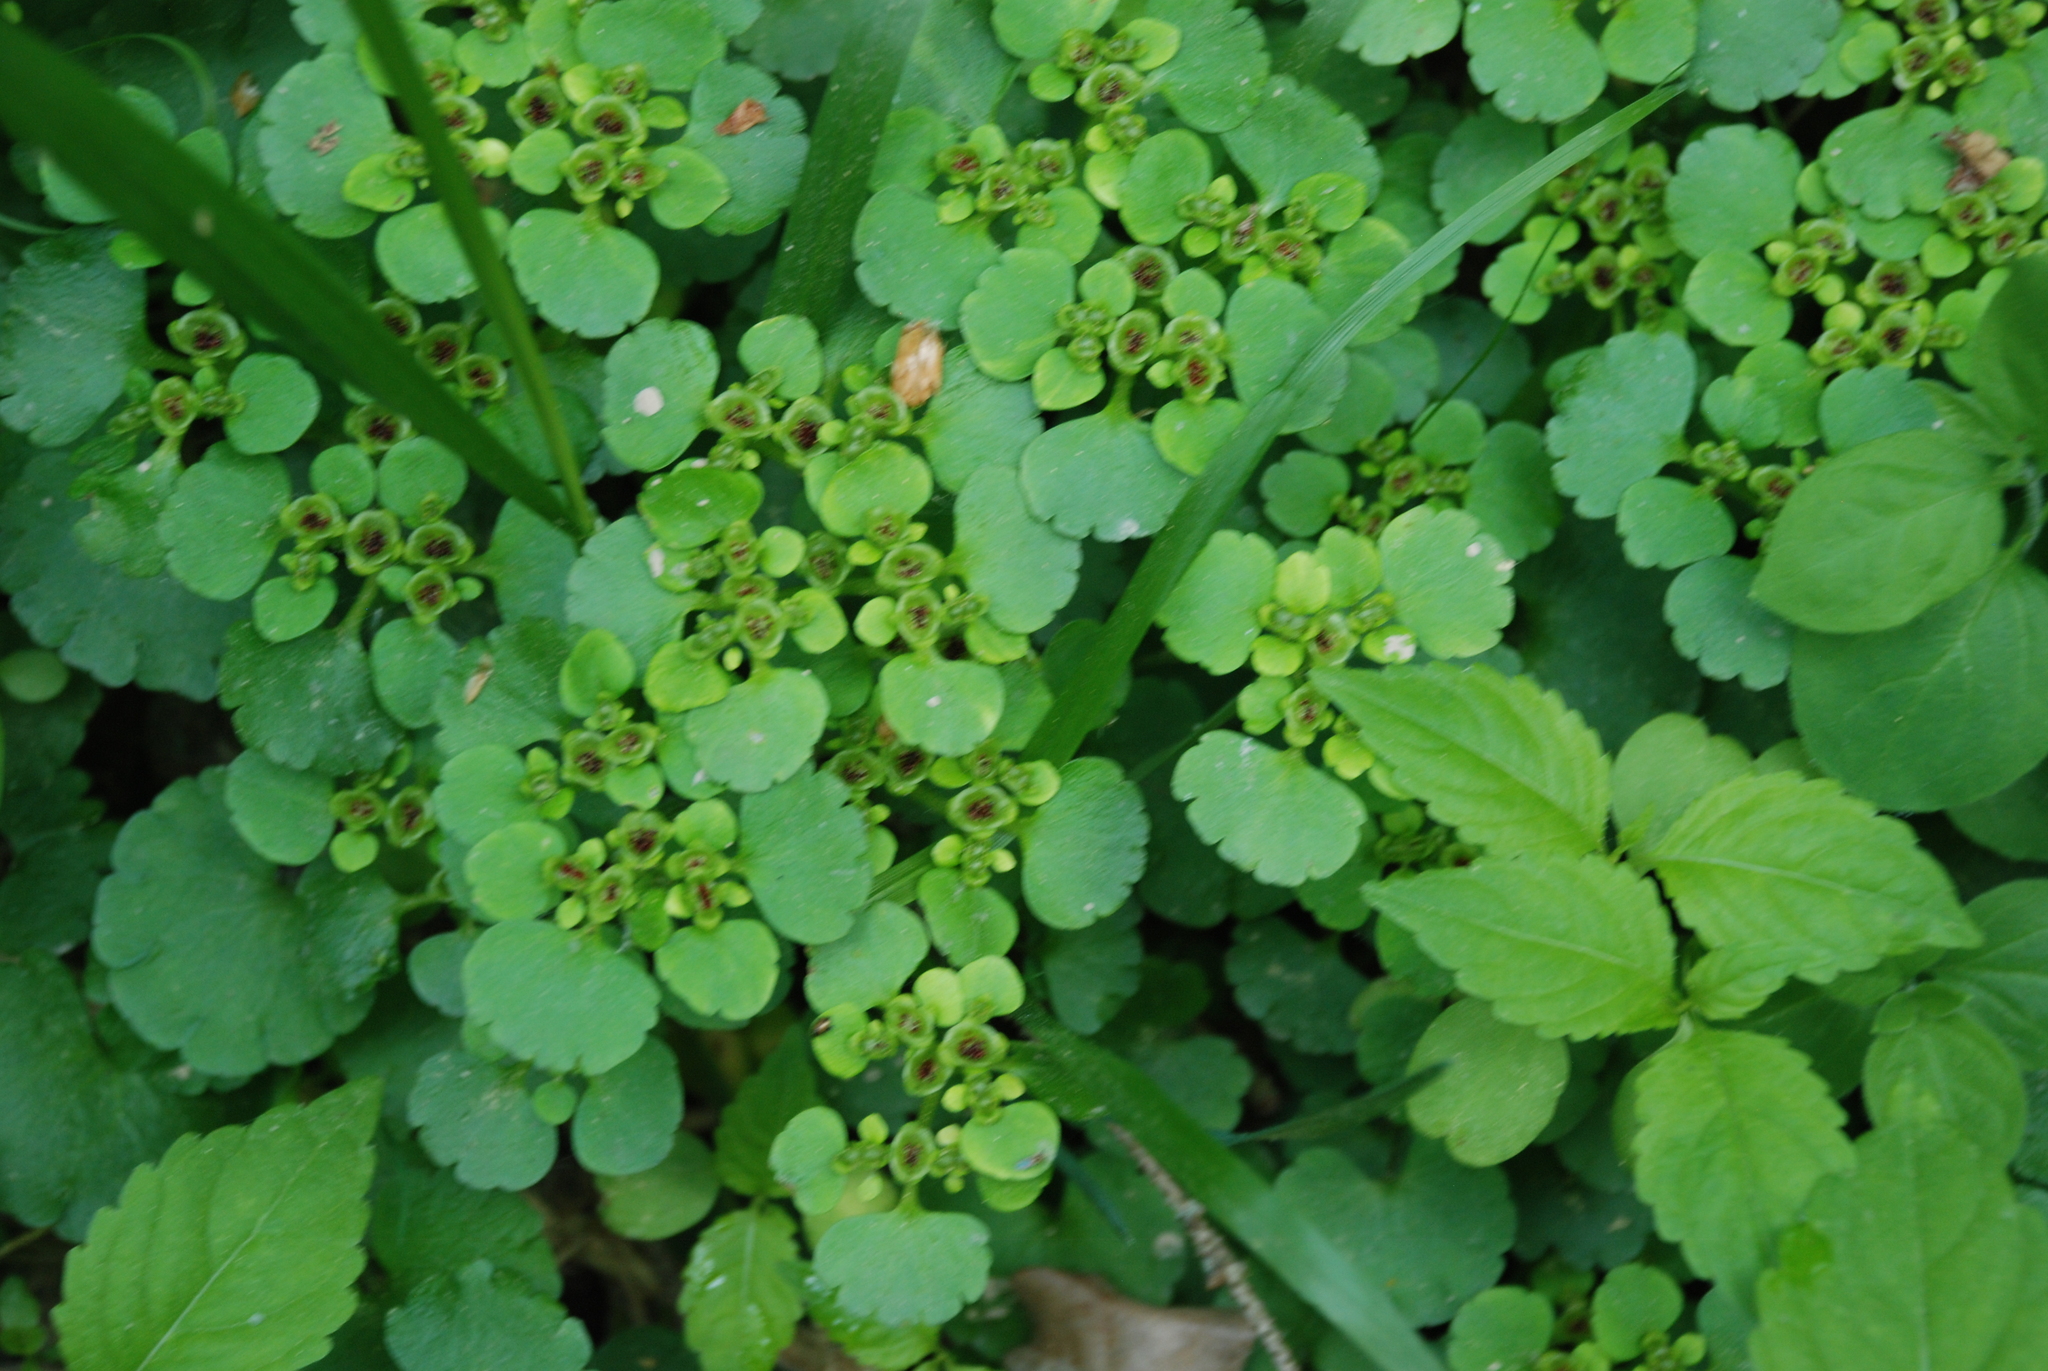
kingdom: Plantae
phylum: Tracheophyta
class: Magnoliopsida
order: Saxifragales
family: Saxifragaceae
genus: Chrysosplenium
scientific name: Chrysosplenium alternifolium
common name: Alternate-leaved golden-saxifrage
